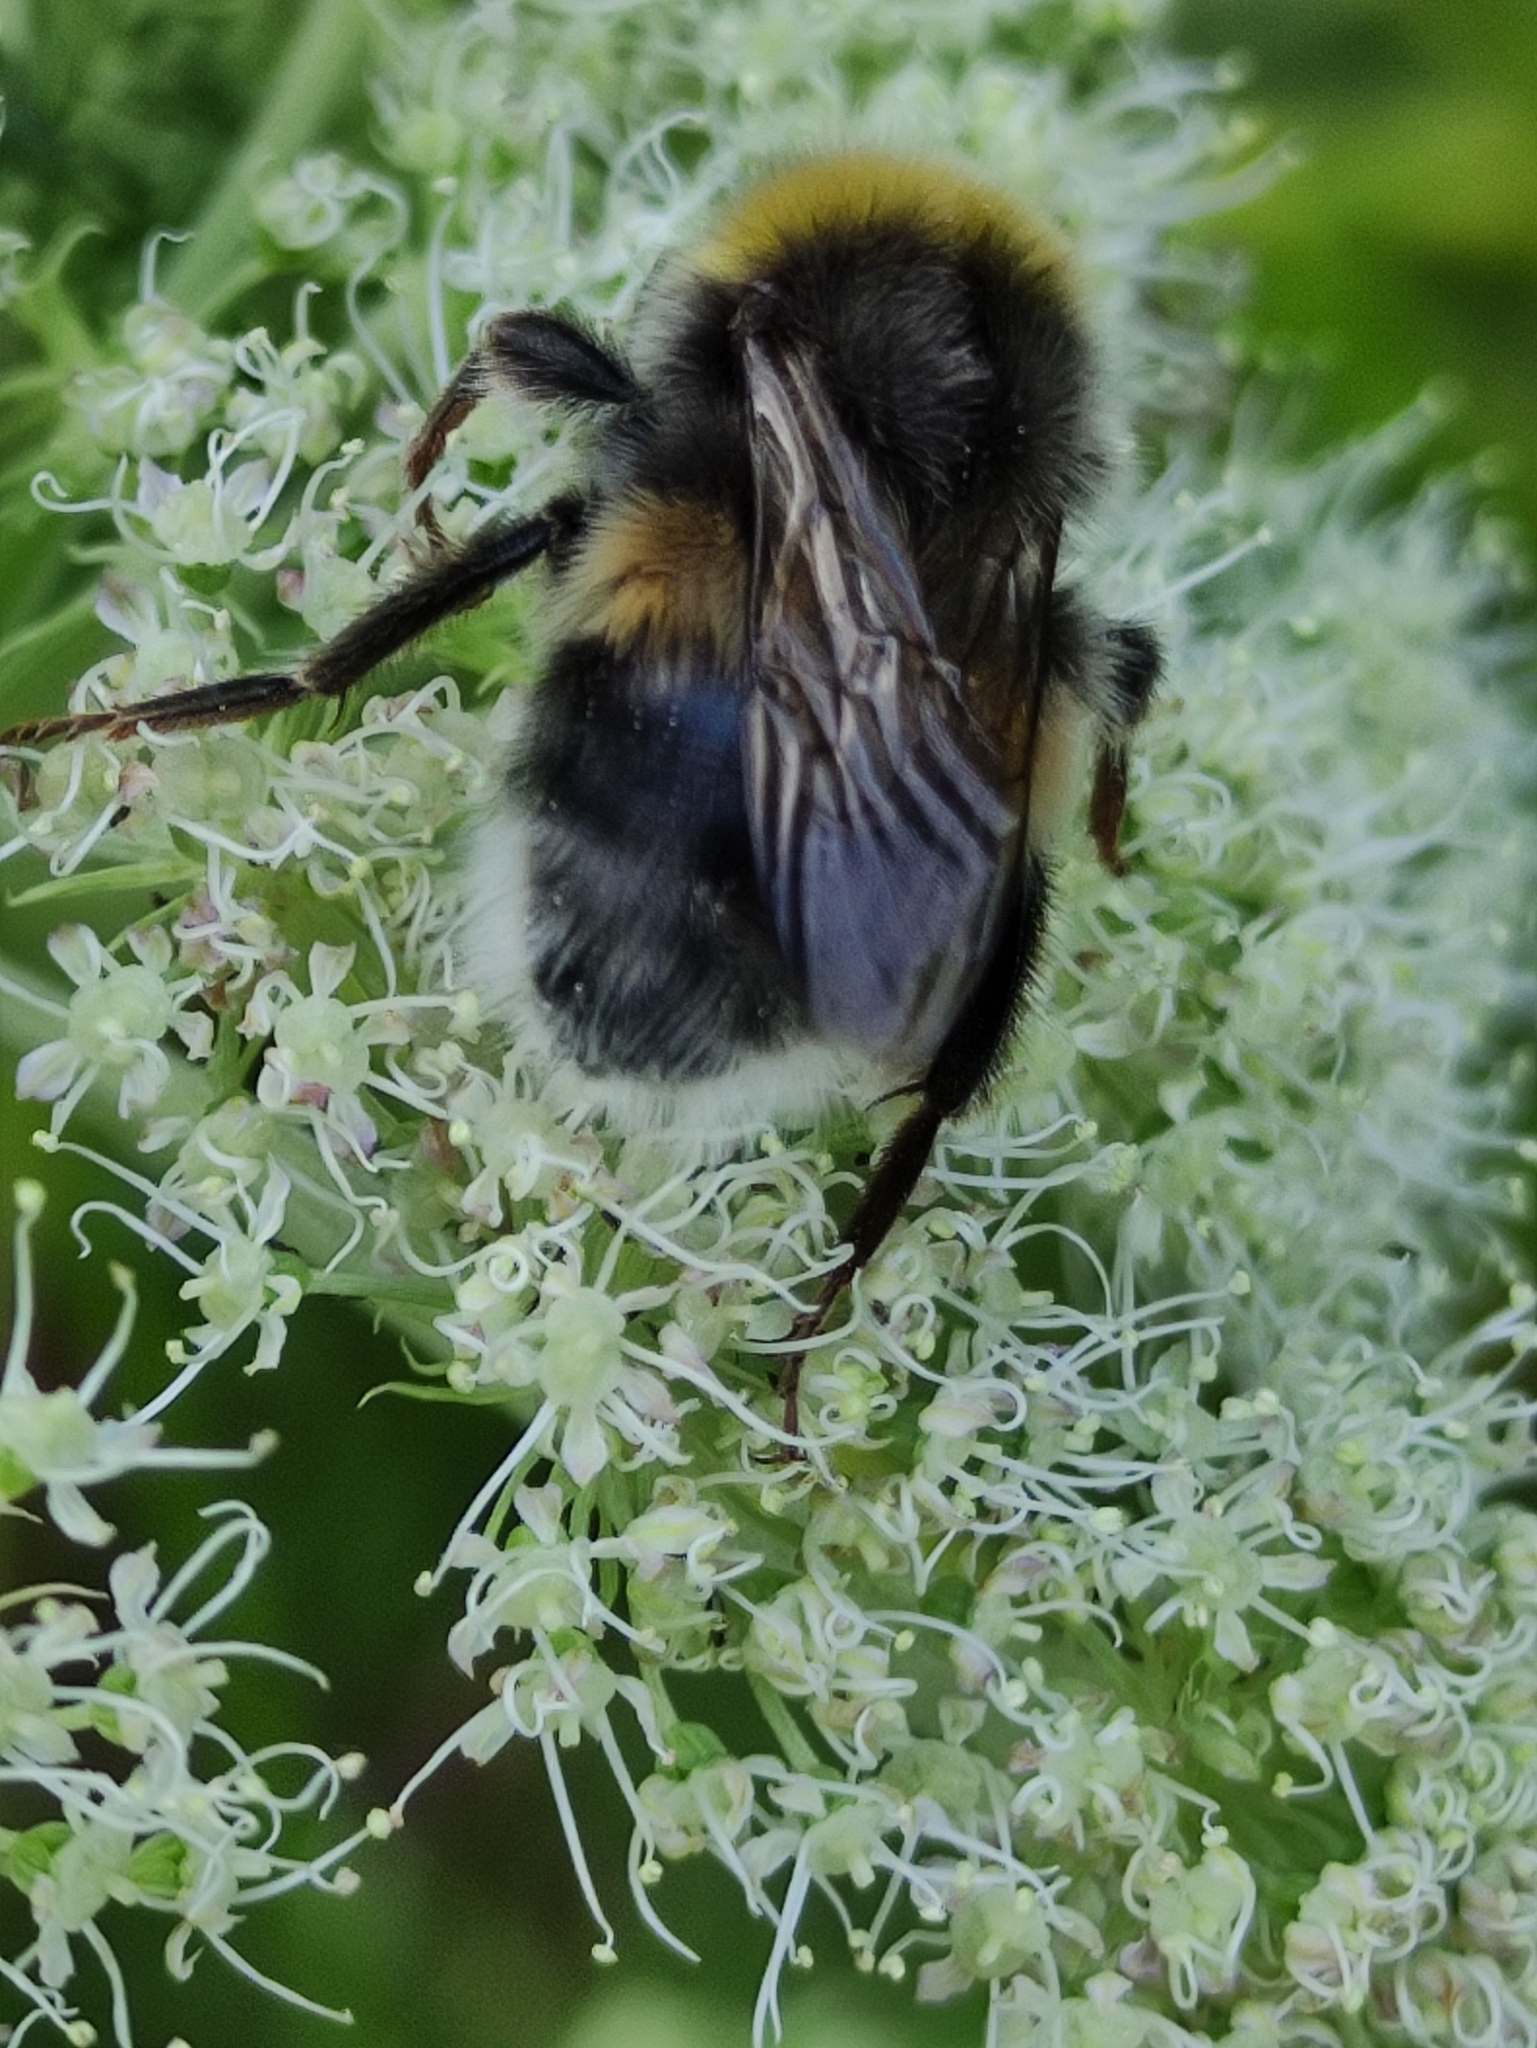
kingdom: Animalia
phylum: Arthropoda
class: Insecta
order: Hymenoptera
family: Apidae
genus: Bombus
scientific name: Bombus lucorum
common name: White-tailed bumblebee
